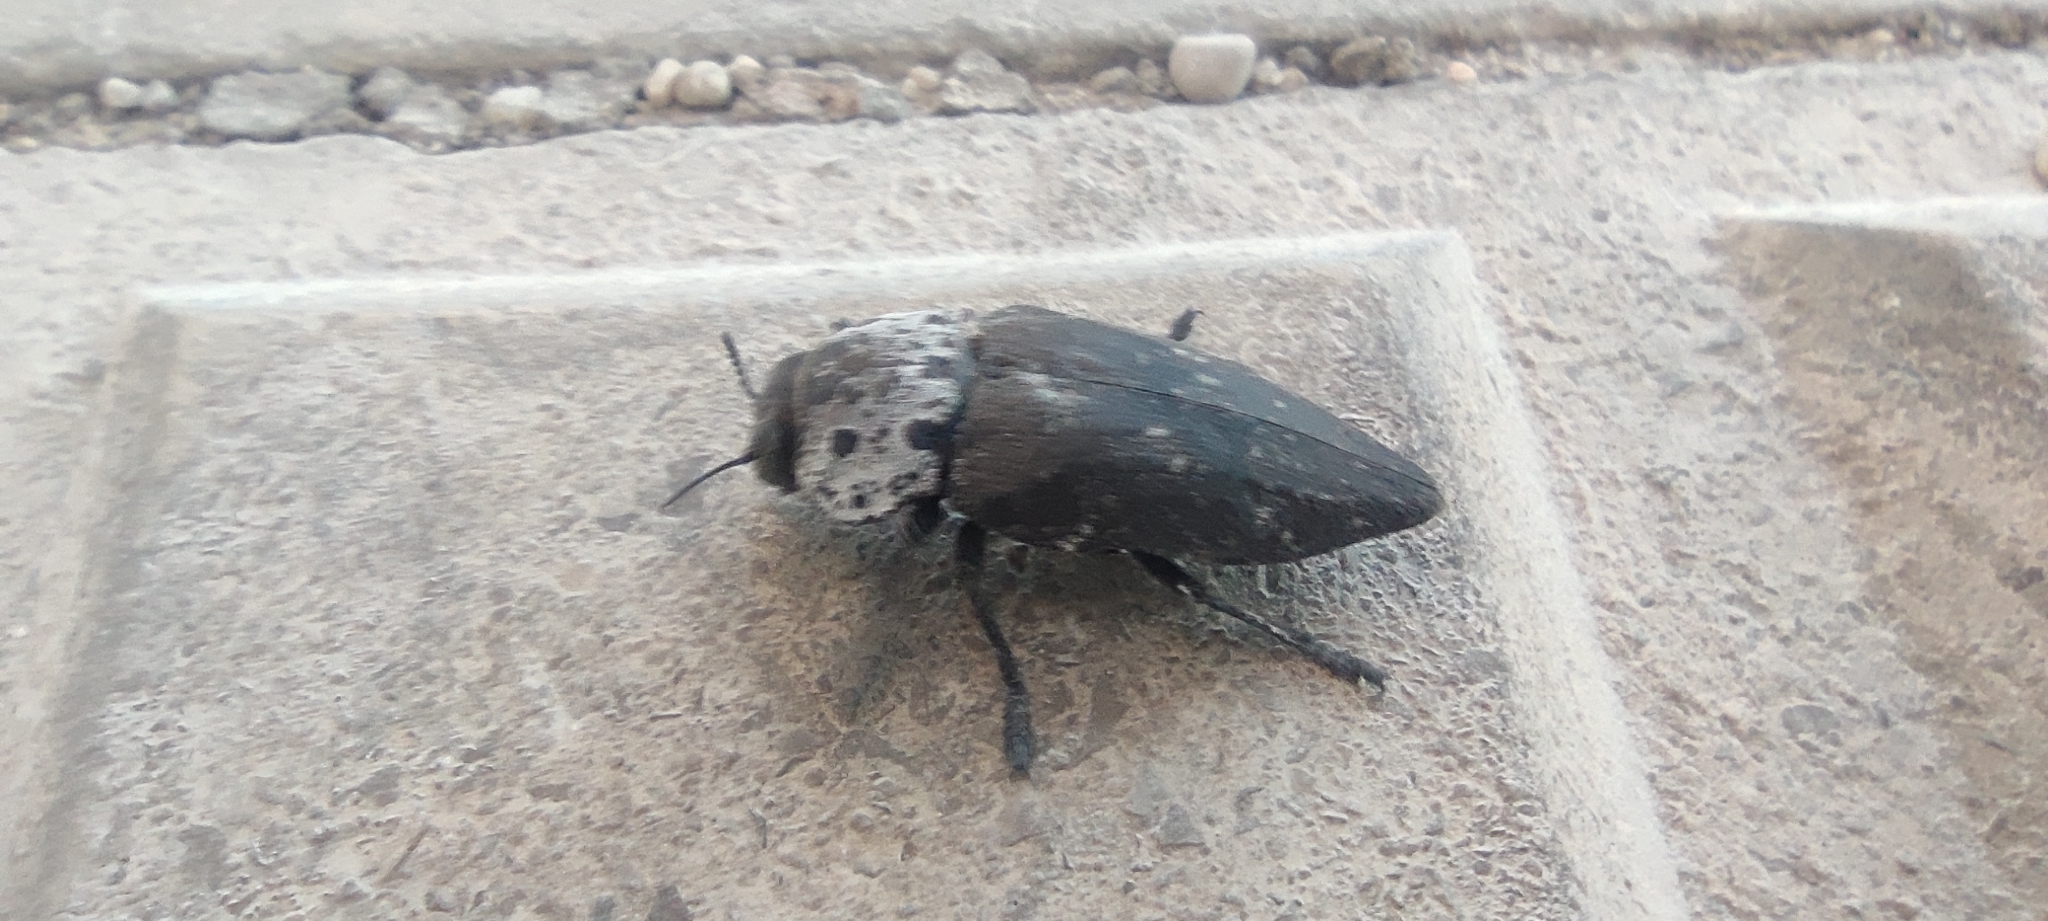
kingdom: Animalia
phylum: Arthropoda
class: Insecta
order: Coleoptera
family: Buprestidae
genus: Capnodis
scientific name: Capnodis tenebrionis
